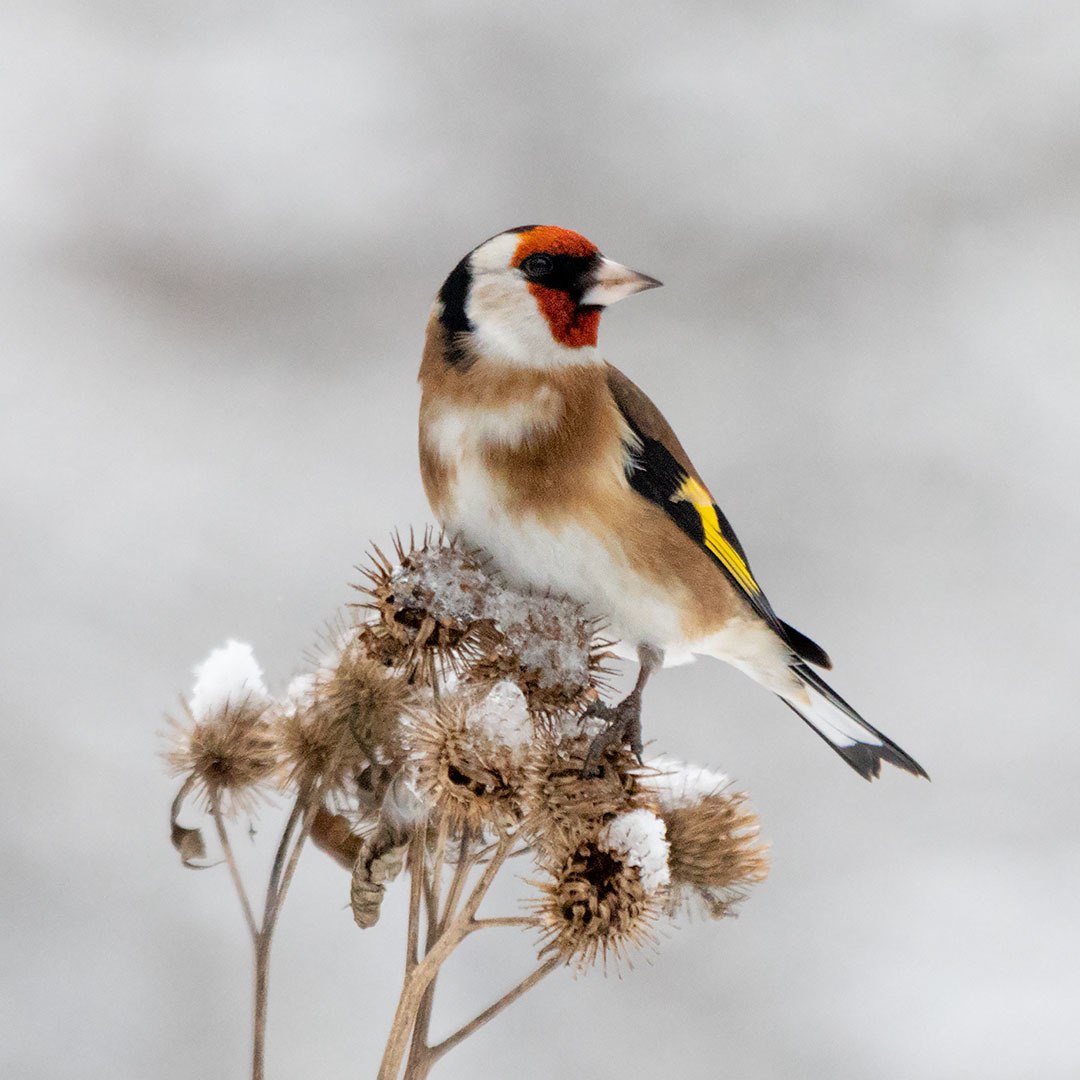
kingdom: Animalia
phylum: Chordata
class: Aves
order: Passeriformes
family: Fringillidae
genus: Carduelis
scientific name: Carduelis carduelis
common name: European goldfinch
